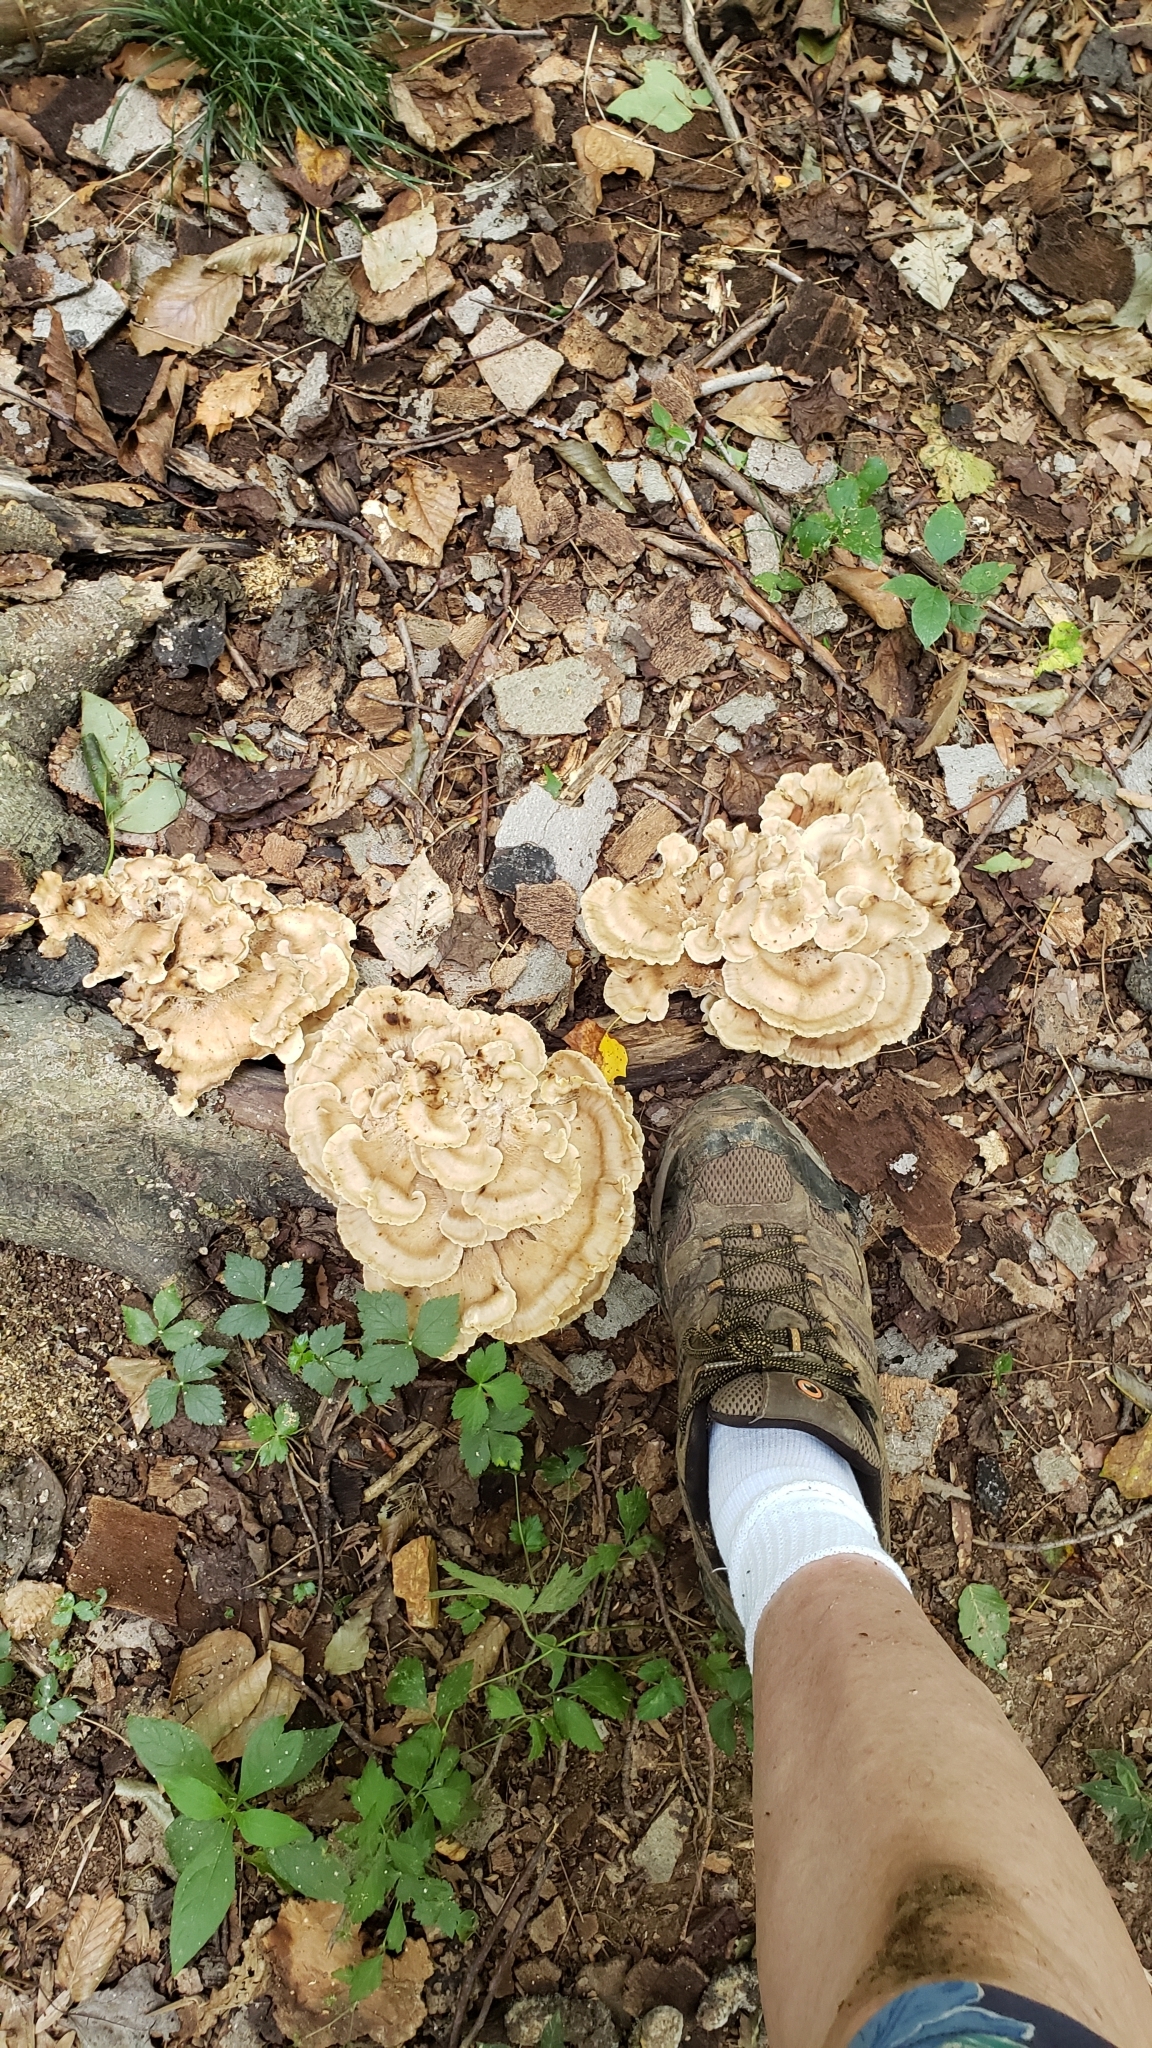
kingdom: Fungi
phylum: Basidiomycota
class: Agaricomycetes
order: Polyporales
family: Meripilaceae
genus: Meripilus
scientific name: Meripilus sumstinei
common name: Black-staining polypore
